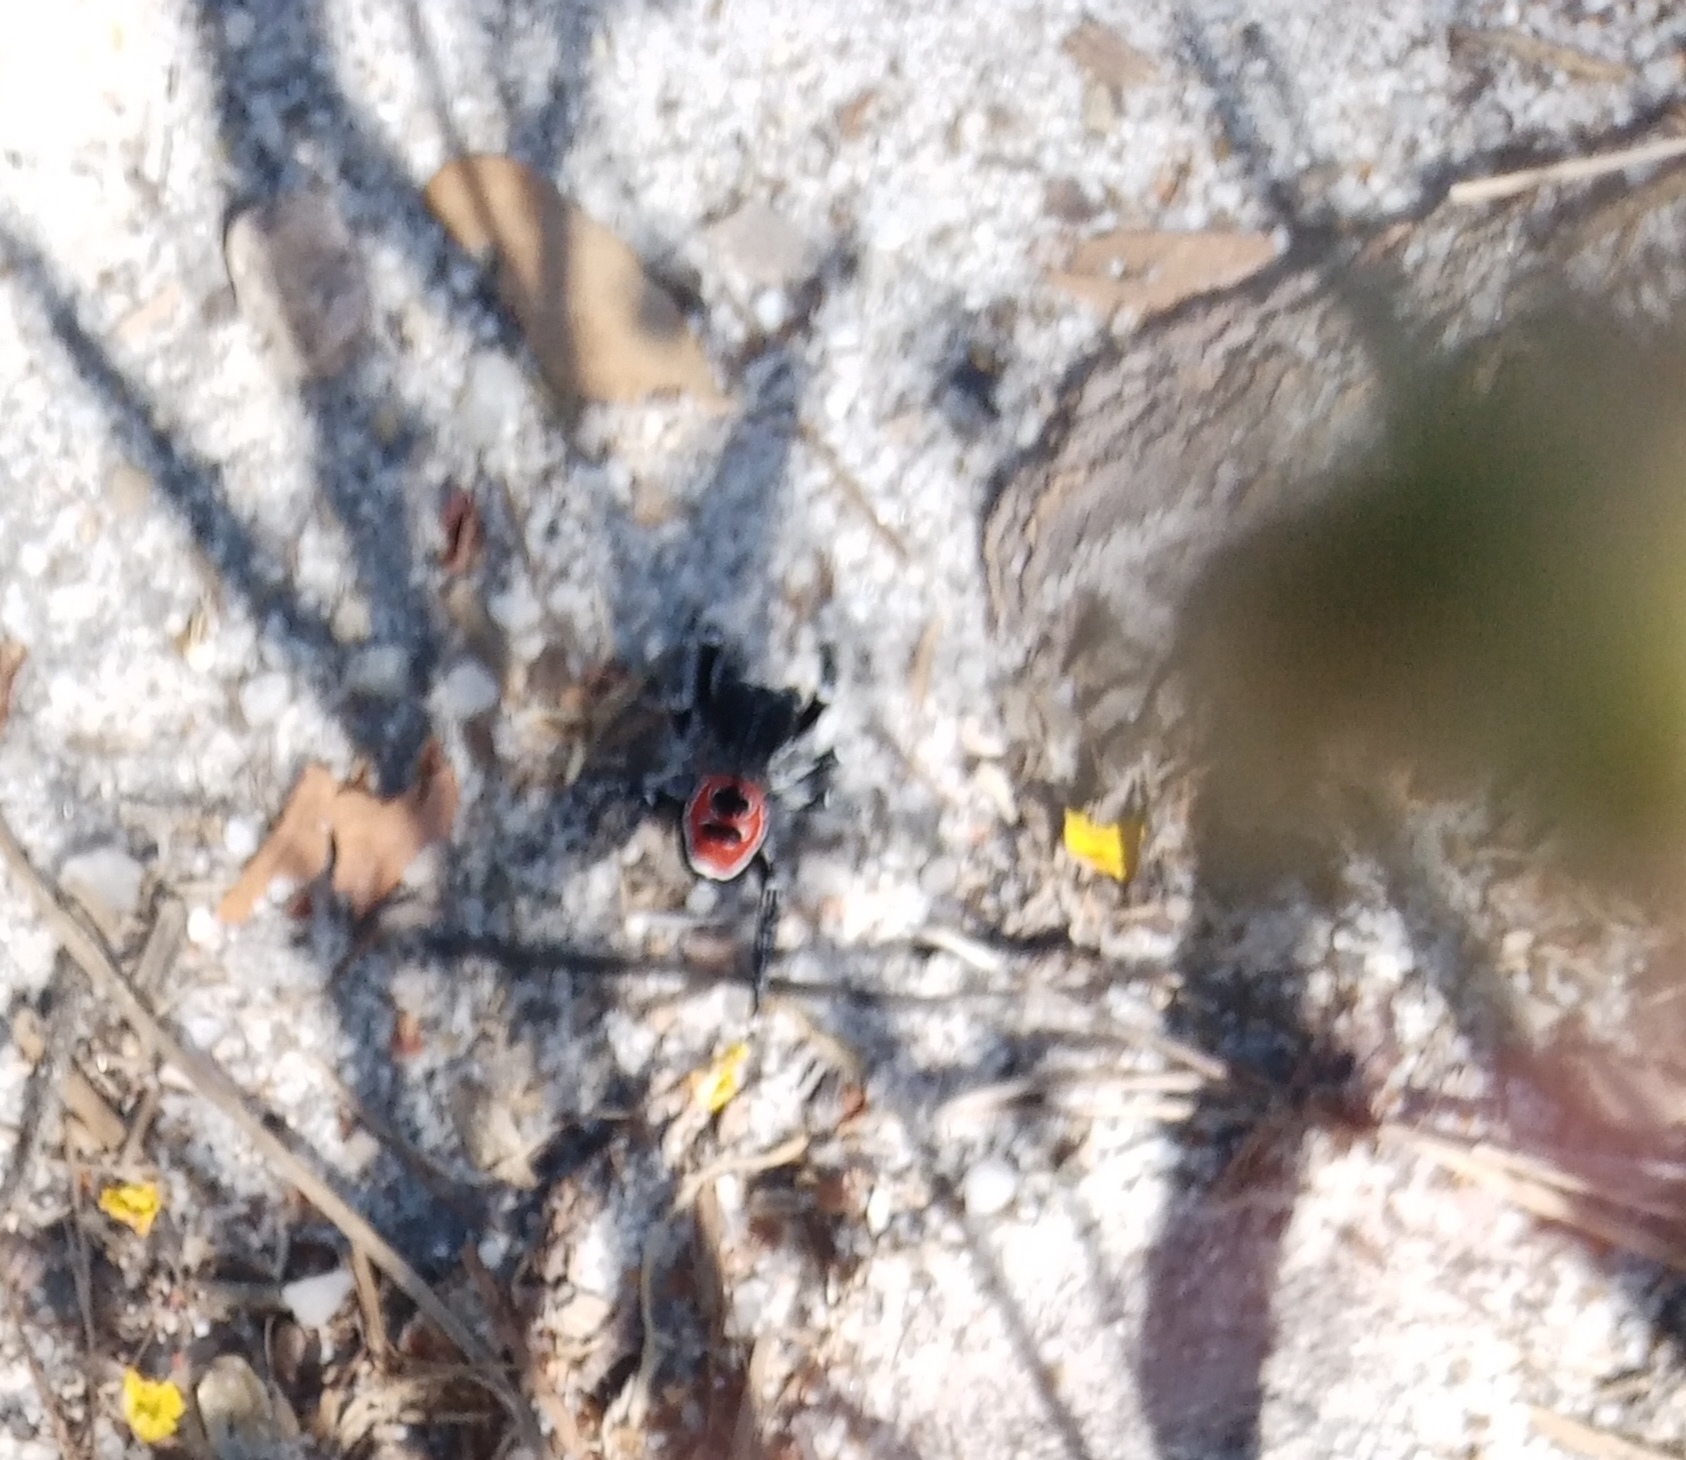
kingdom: Animalia
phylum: Arthropoda
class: Arachnida
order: Araneae
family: Eresidae
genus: Eresus
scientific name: Eresus sedilloti
